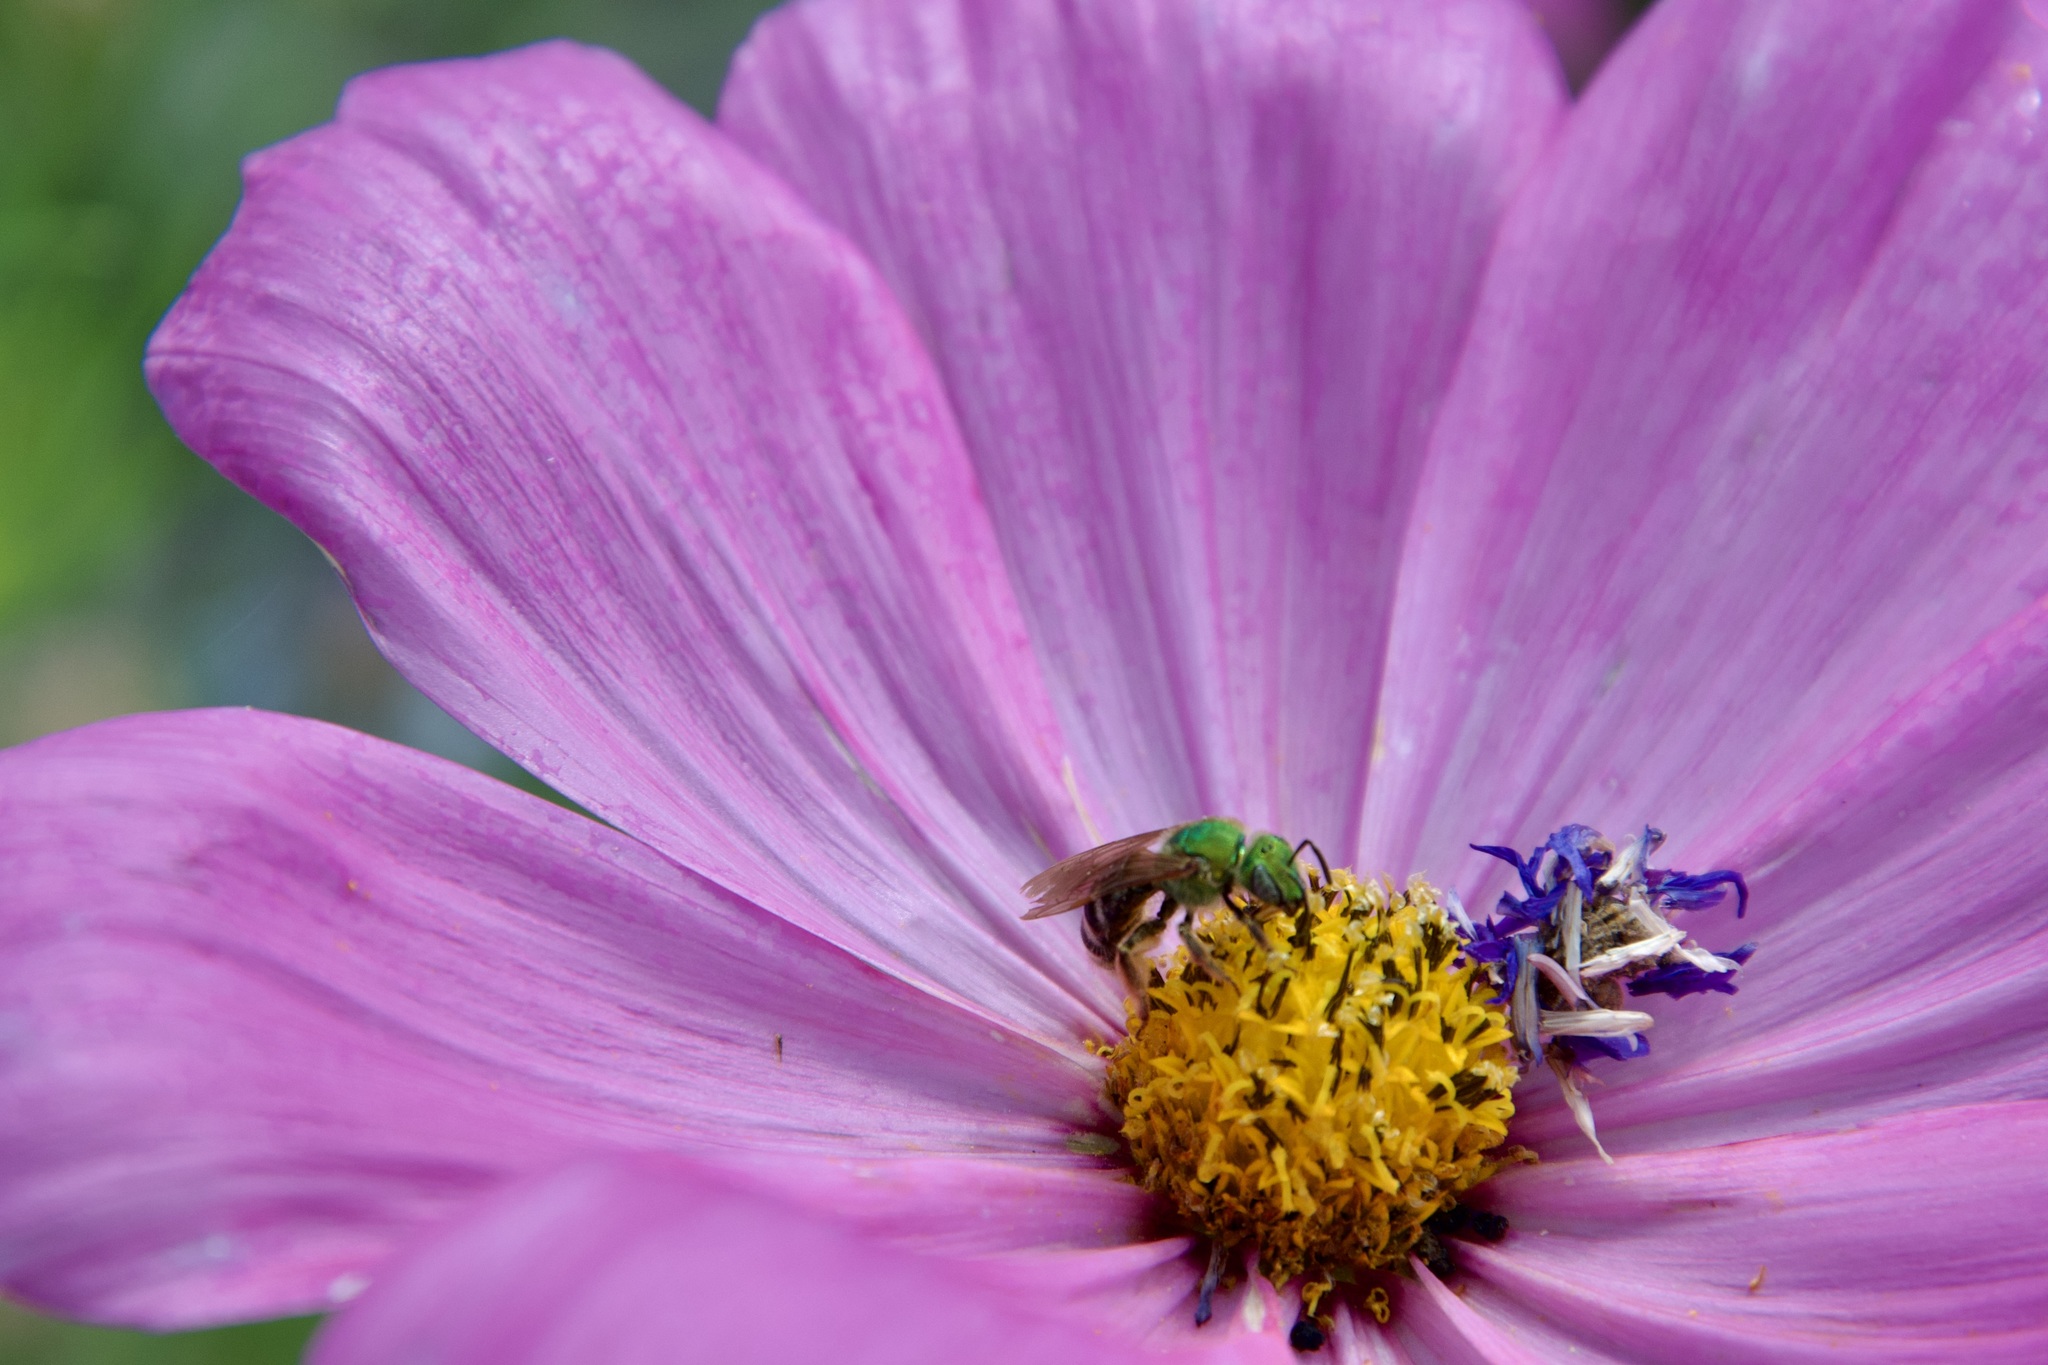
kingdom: Animalia
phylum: Arthropoda
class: Insecta
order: Hymenoptera
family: Halictidae
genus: Agapostemon
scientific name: Agapostemon virescens
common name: Bicolored striped sweat bee
